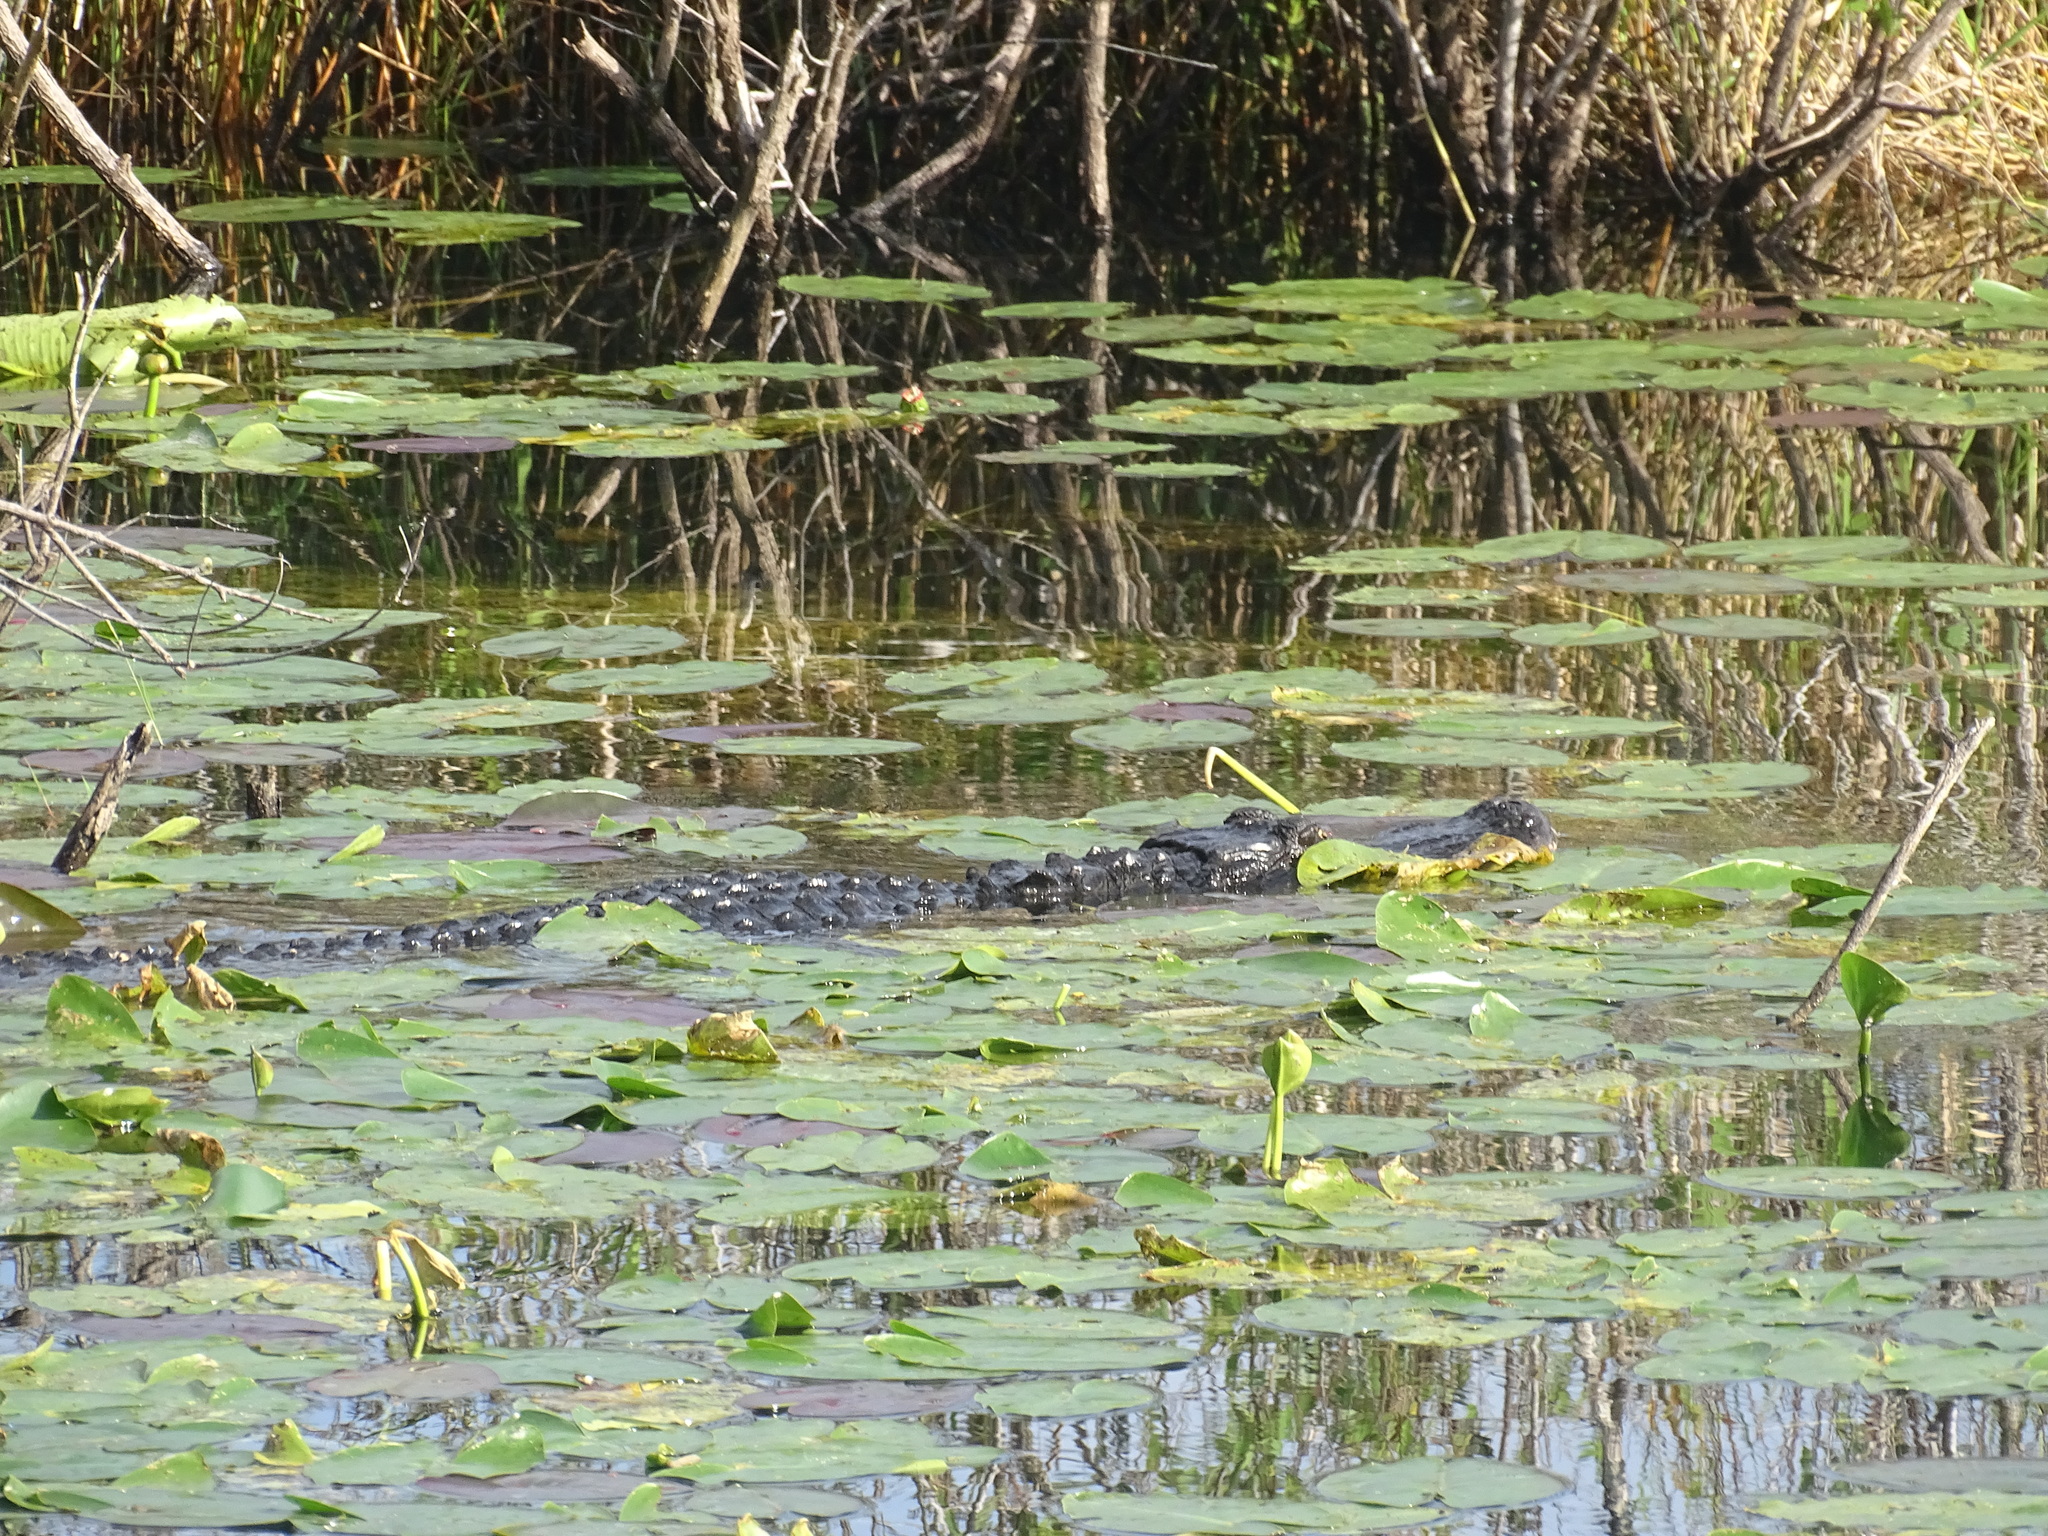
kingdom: Animalia
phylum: Chordata
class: Crocodylia
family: Alligatoridae
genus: Alligator
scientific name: Alligator mississippiensis
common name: American alligator
